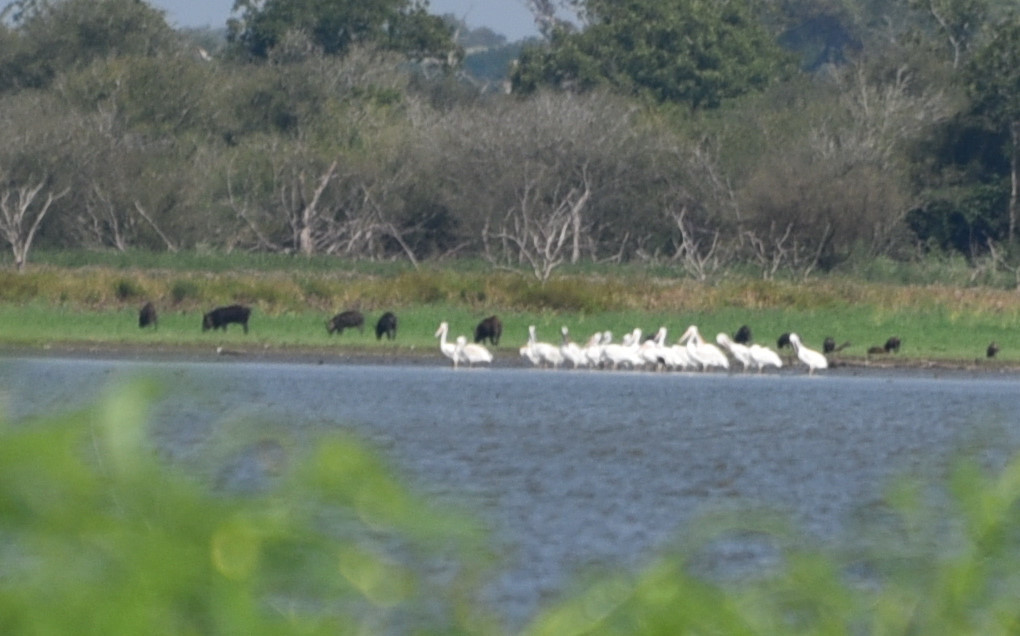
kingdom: Animalia
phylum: Chordata
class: Mammalia
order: Artiodactyla
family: Suidae
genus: Sus
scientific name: Sus scrofa
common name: Wild boar
